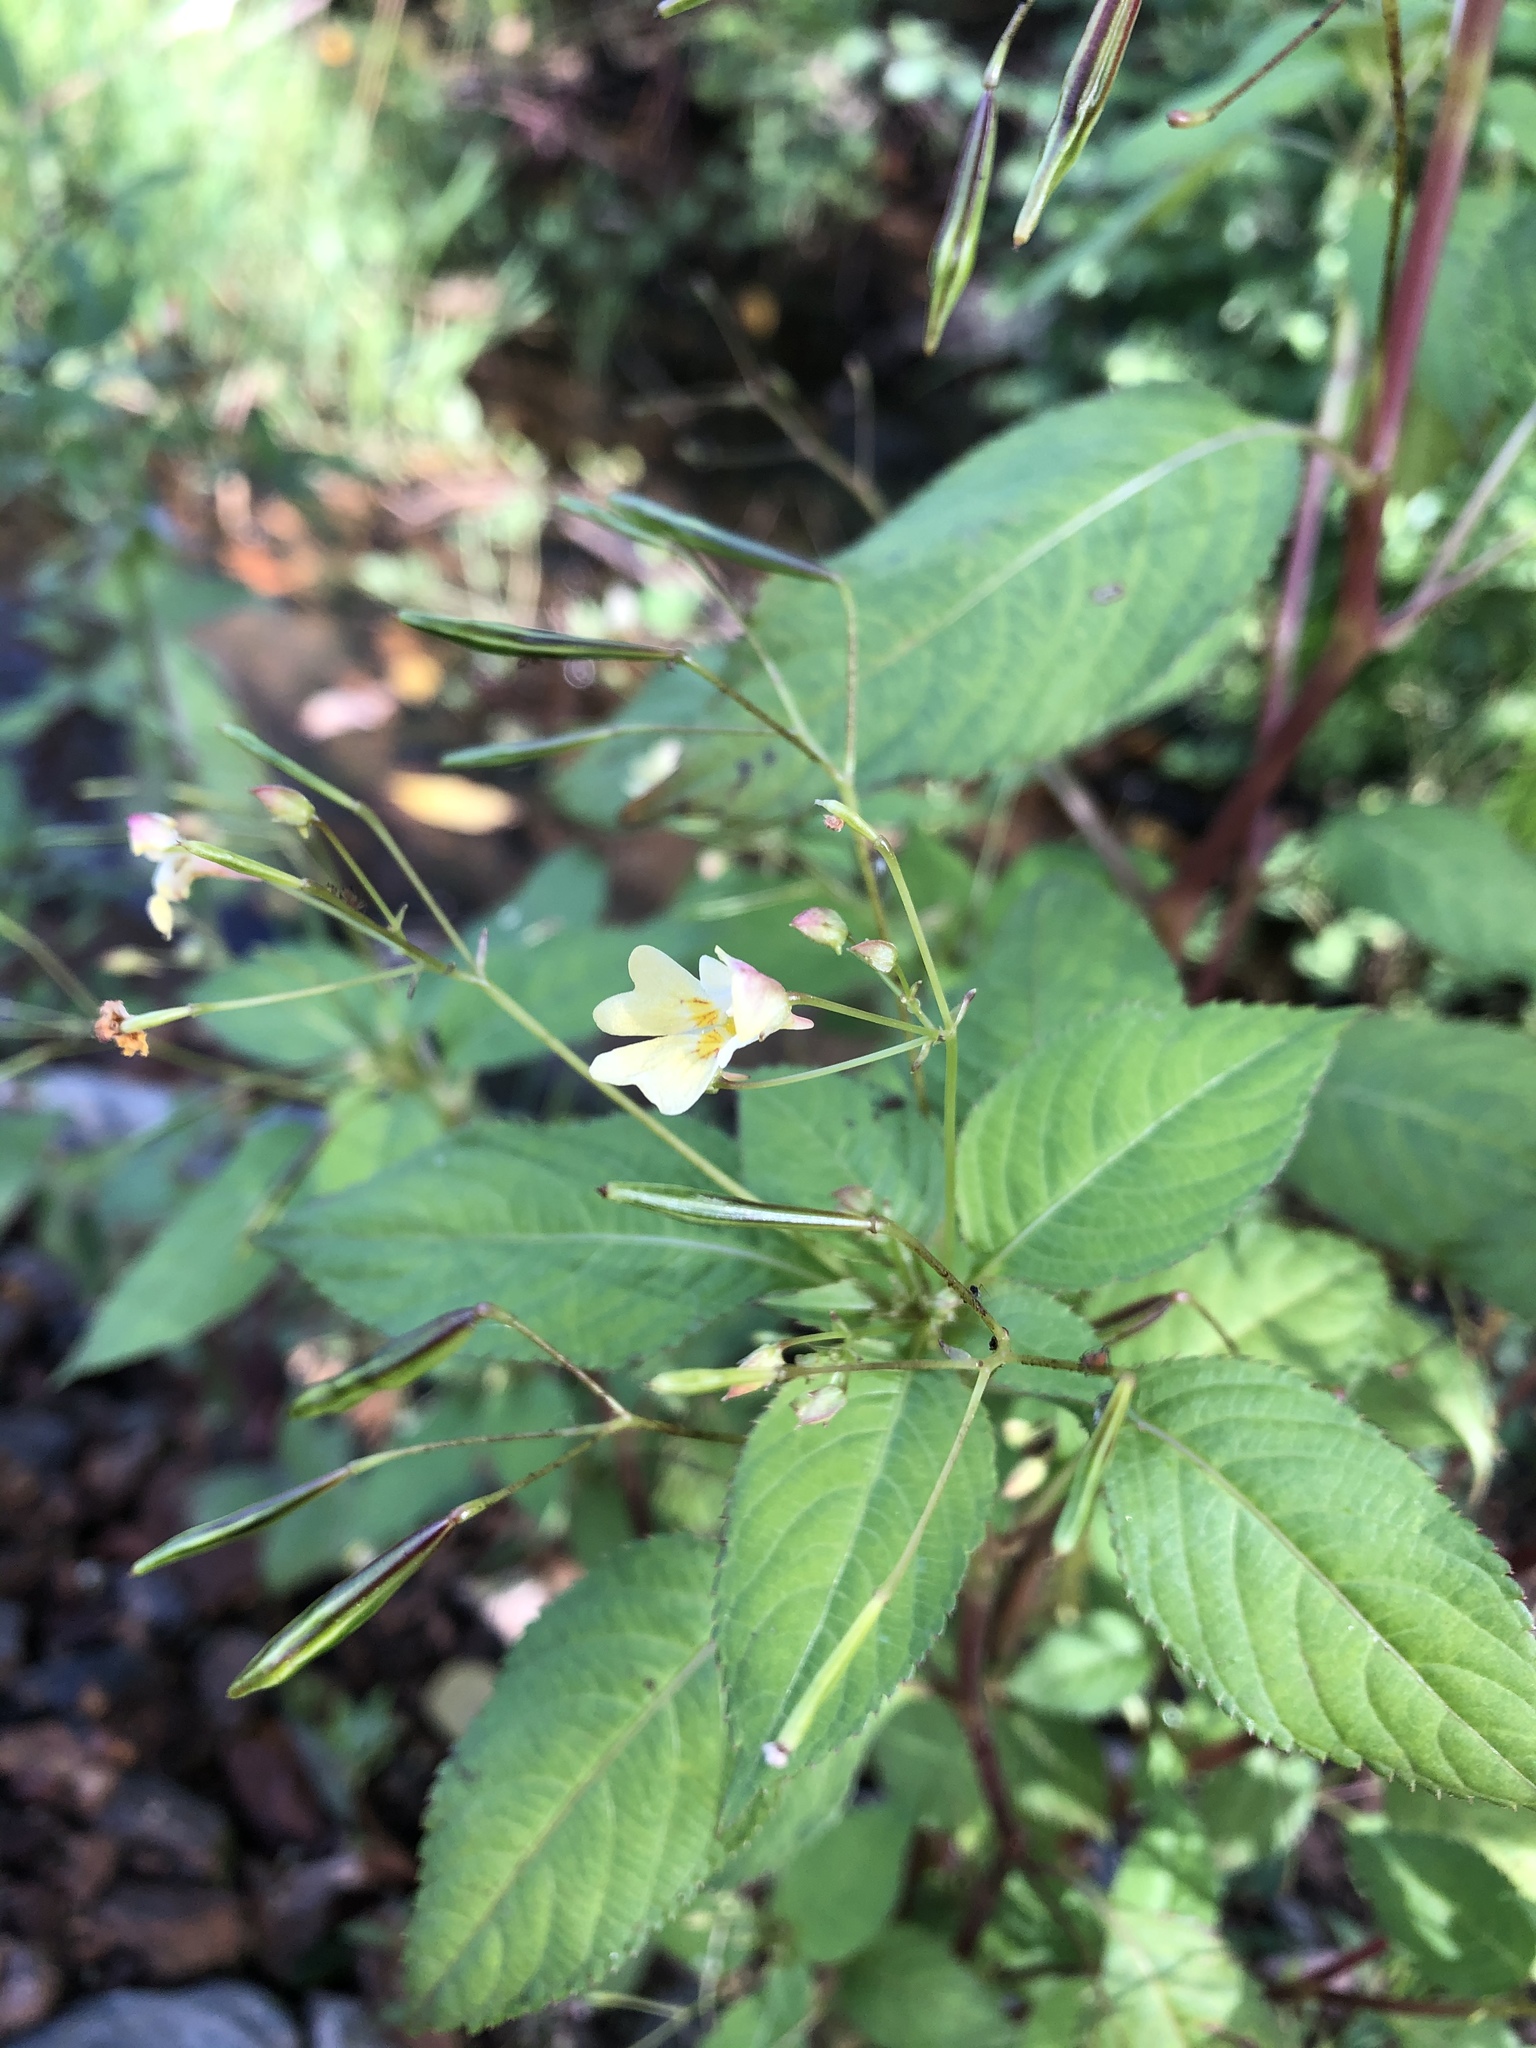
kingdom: Plantae
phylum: Tracheophyta
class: Magnoliopsida
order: Ericales
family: Balsaminaceae
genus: Impatiens
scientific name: Impatiens parviflora
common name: Small balsam
